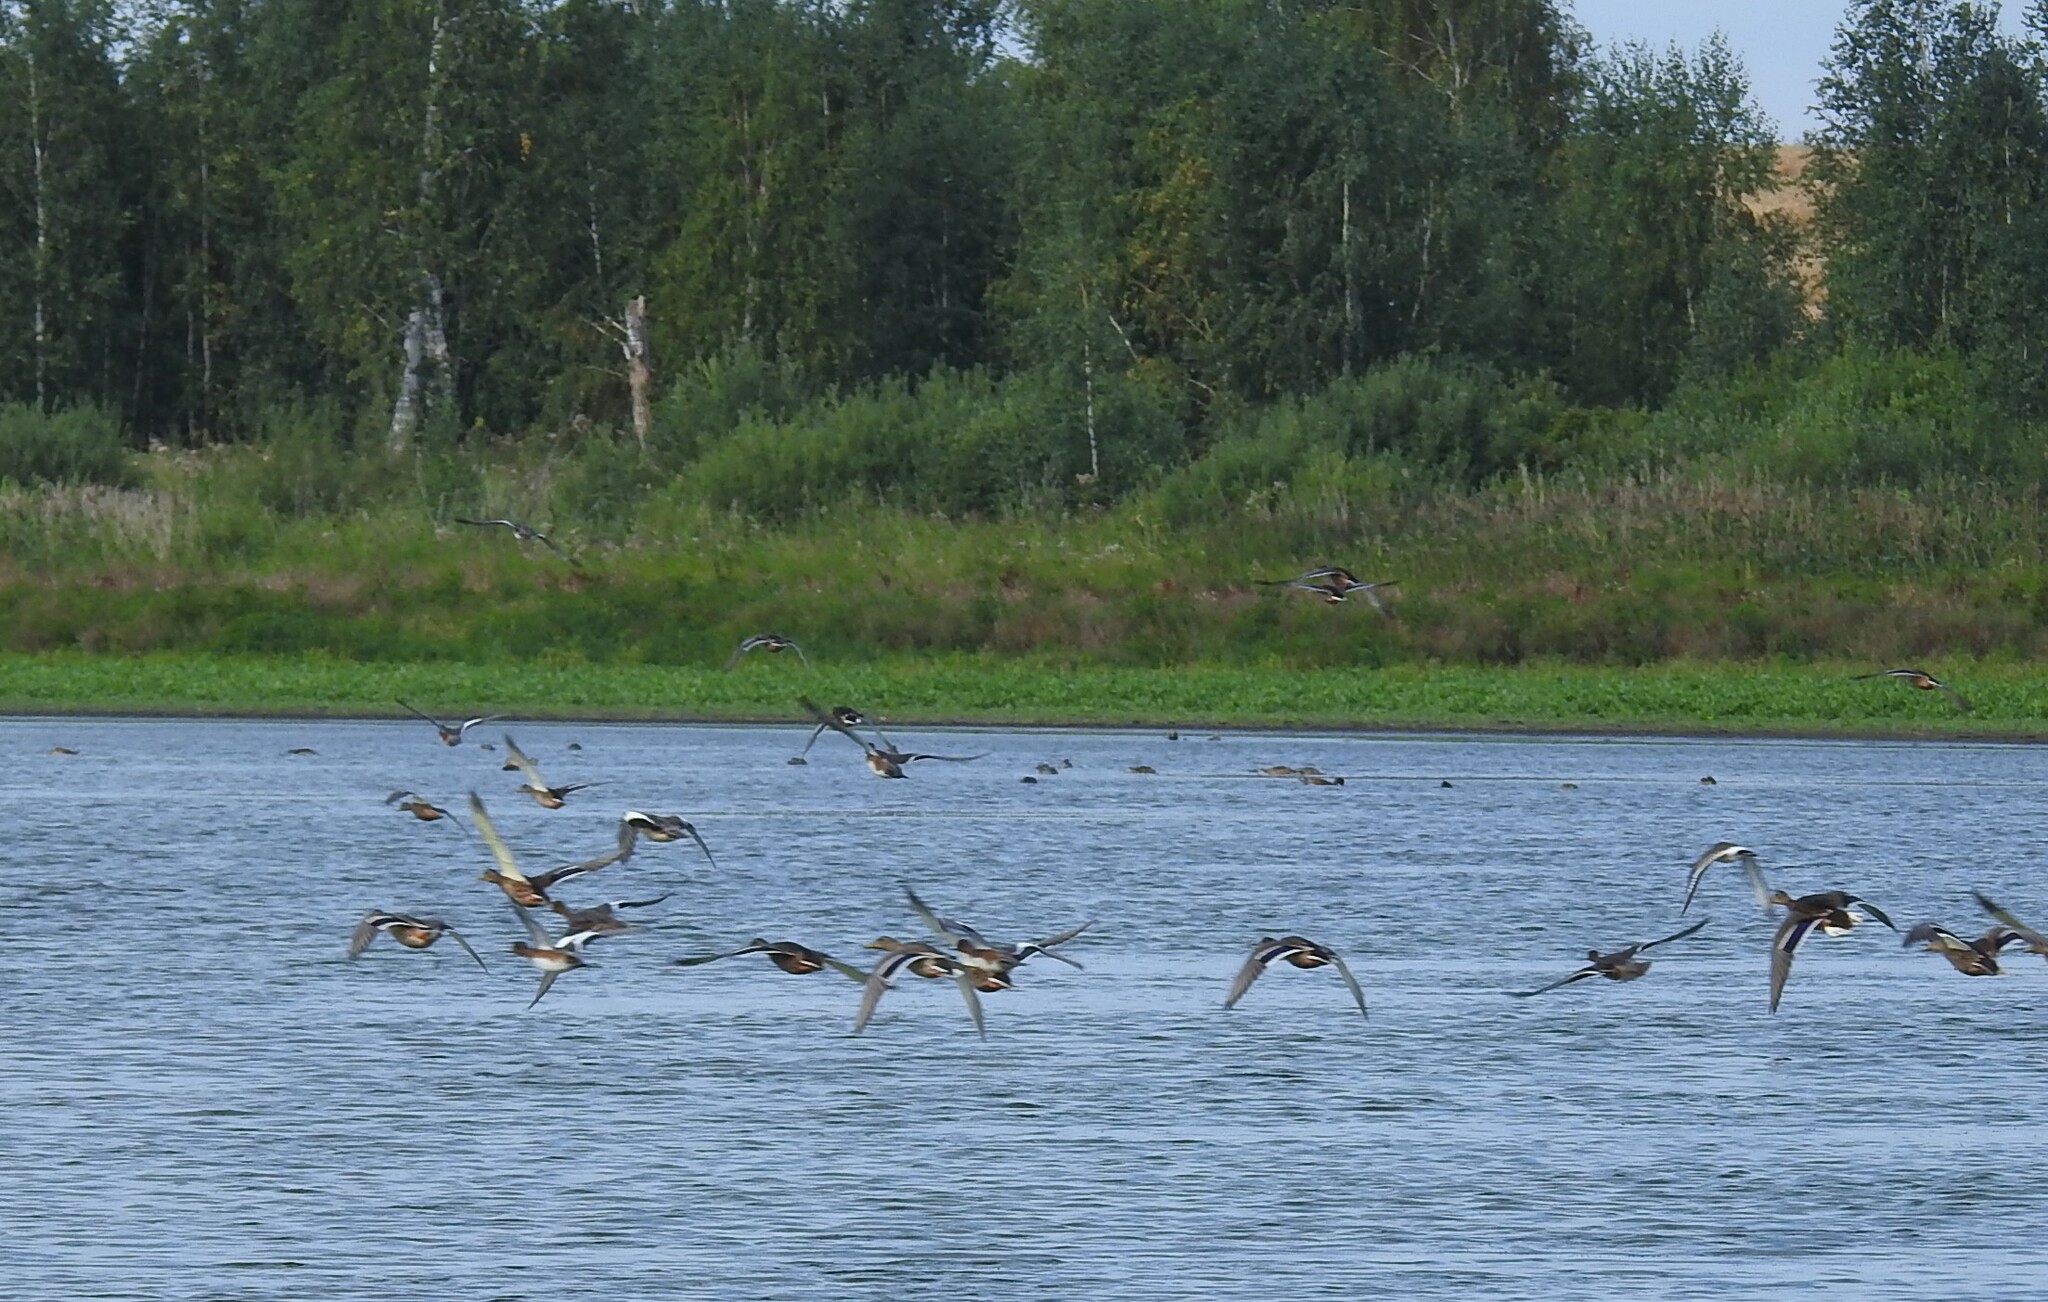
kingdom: Animalia
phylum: Chordata
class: Aves
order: Anseriformes
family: Anatidae
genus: Anas
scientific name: Anas platyrhynchos
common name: Mallard
